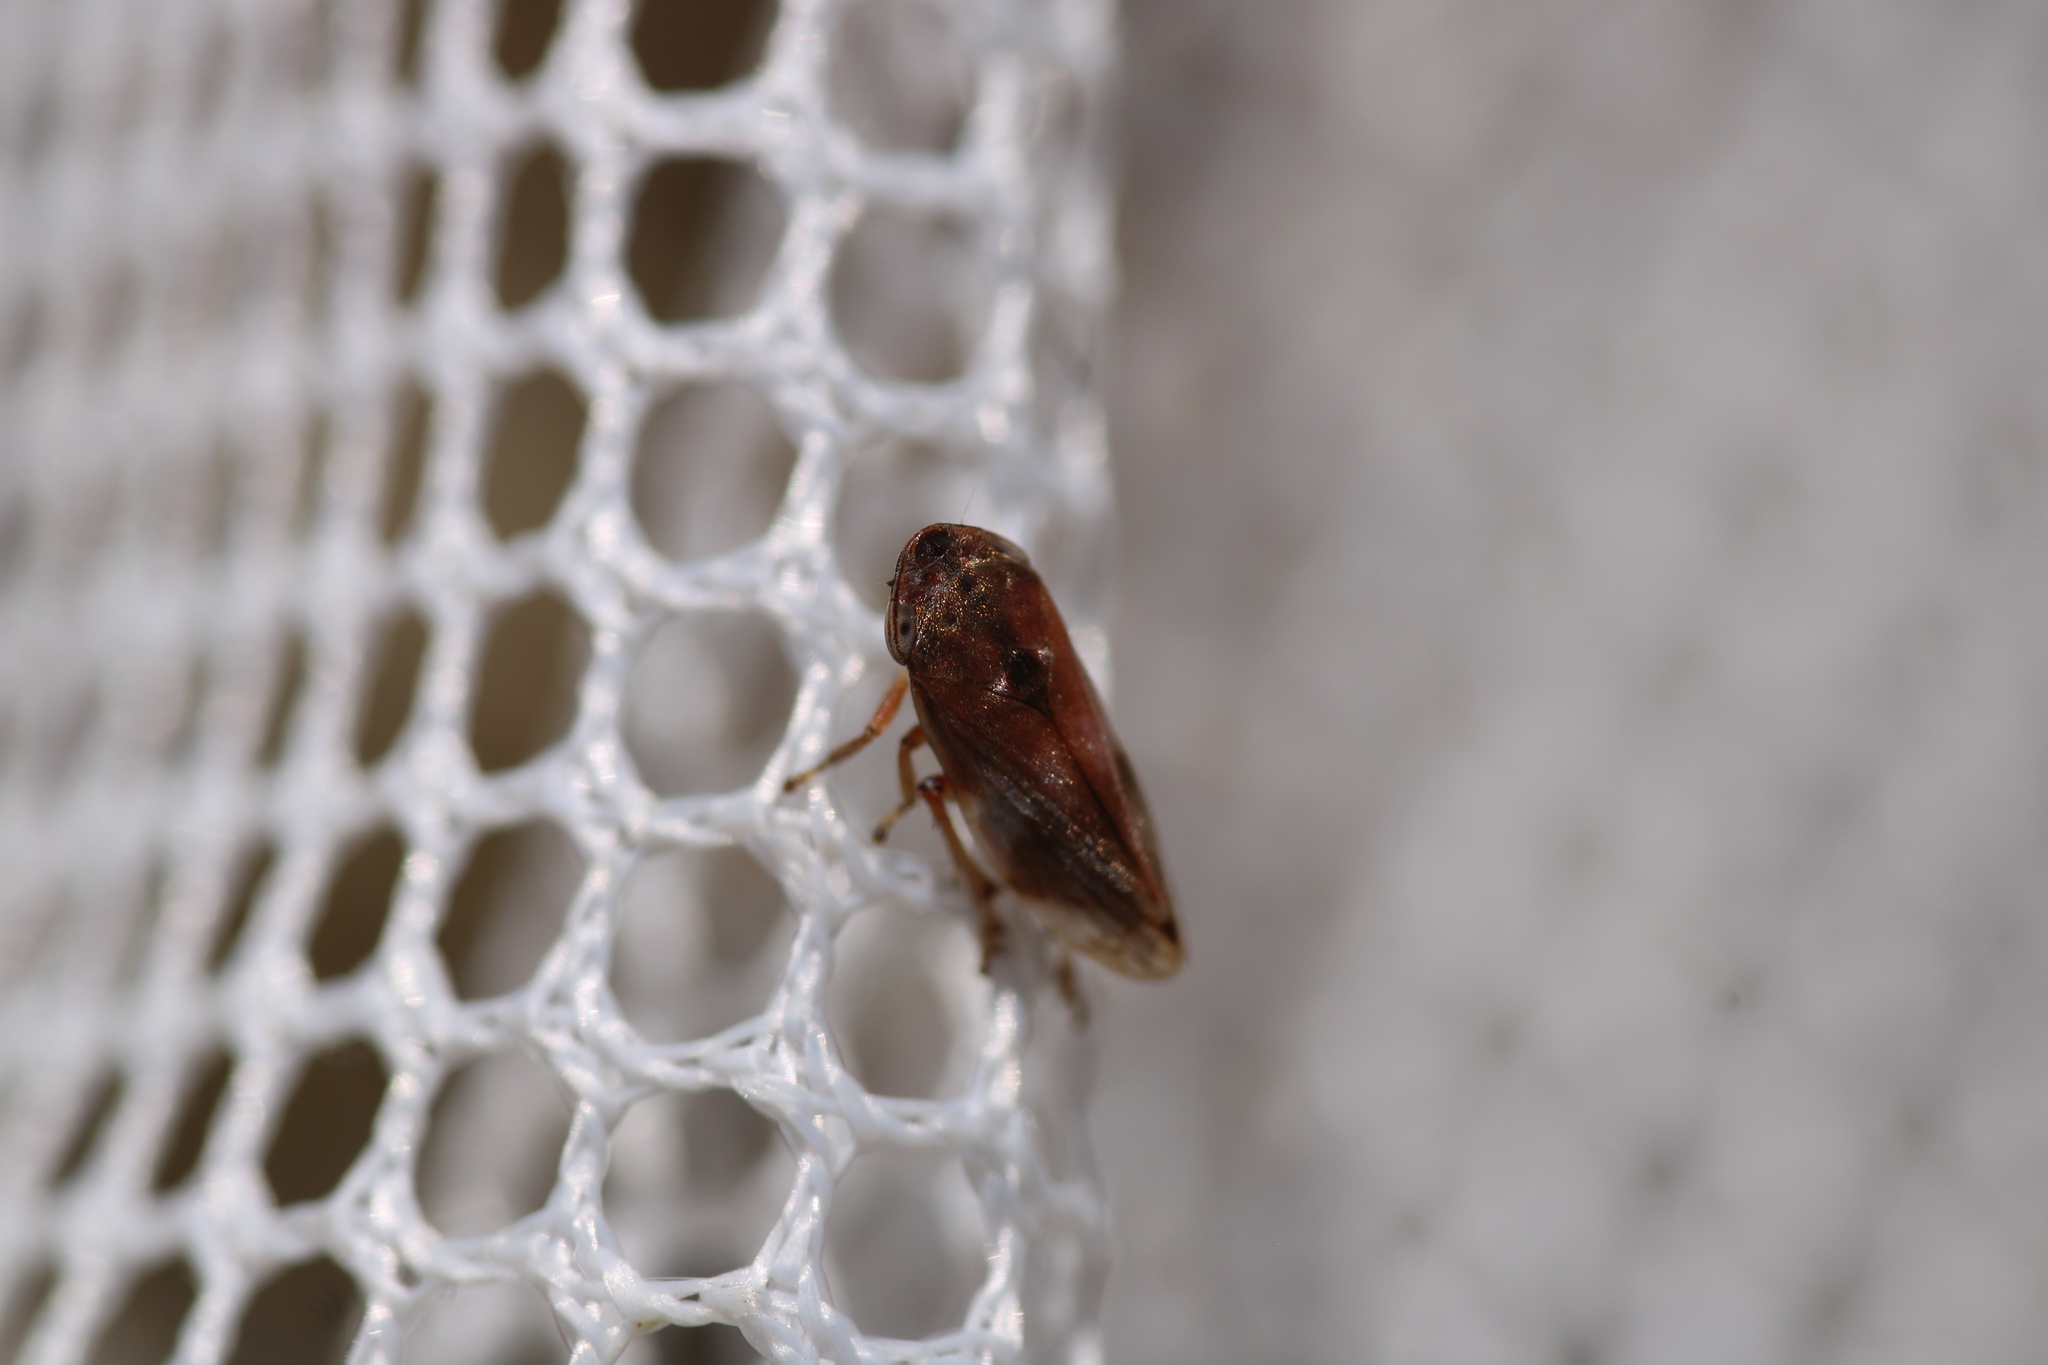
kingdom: Animalia
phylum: Arthropoda
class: Insecta
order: Hemiptera
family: Aphrophoridae
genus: Neophilaenus
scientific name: Neophilaenus campestris
